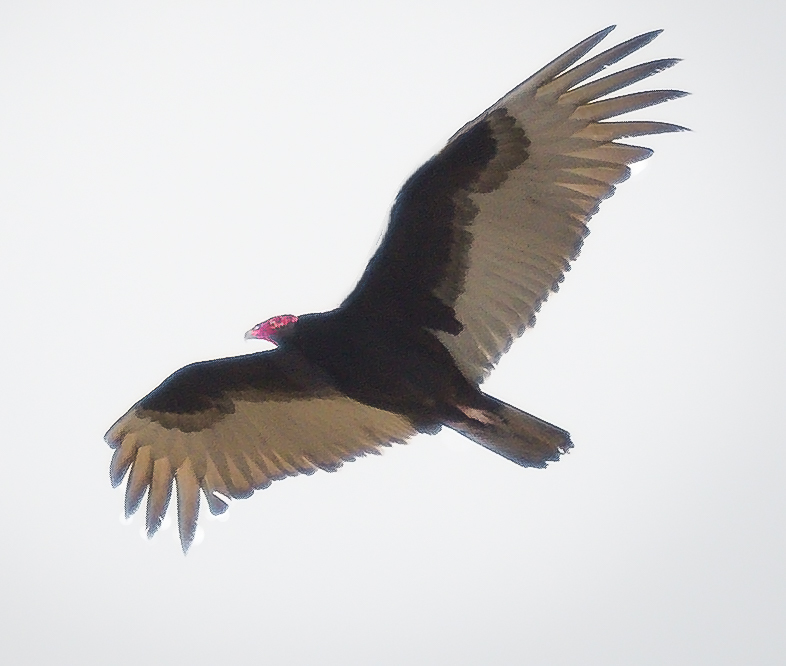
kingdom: Animalia
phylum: Chordata
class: Aves
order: Accipitriformes
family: Cathartidae
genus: Cathartes
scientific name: Cathartes aura
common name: Turkey vulture
